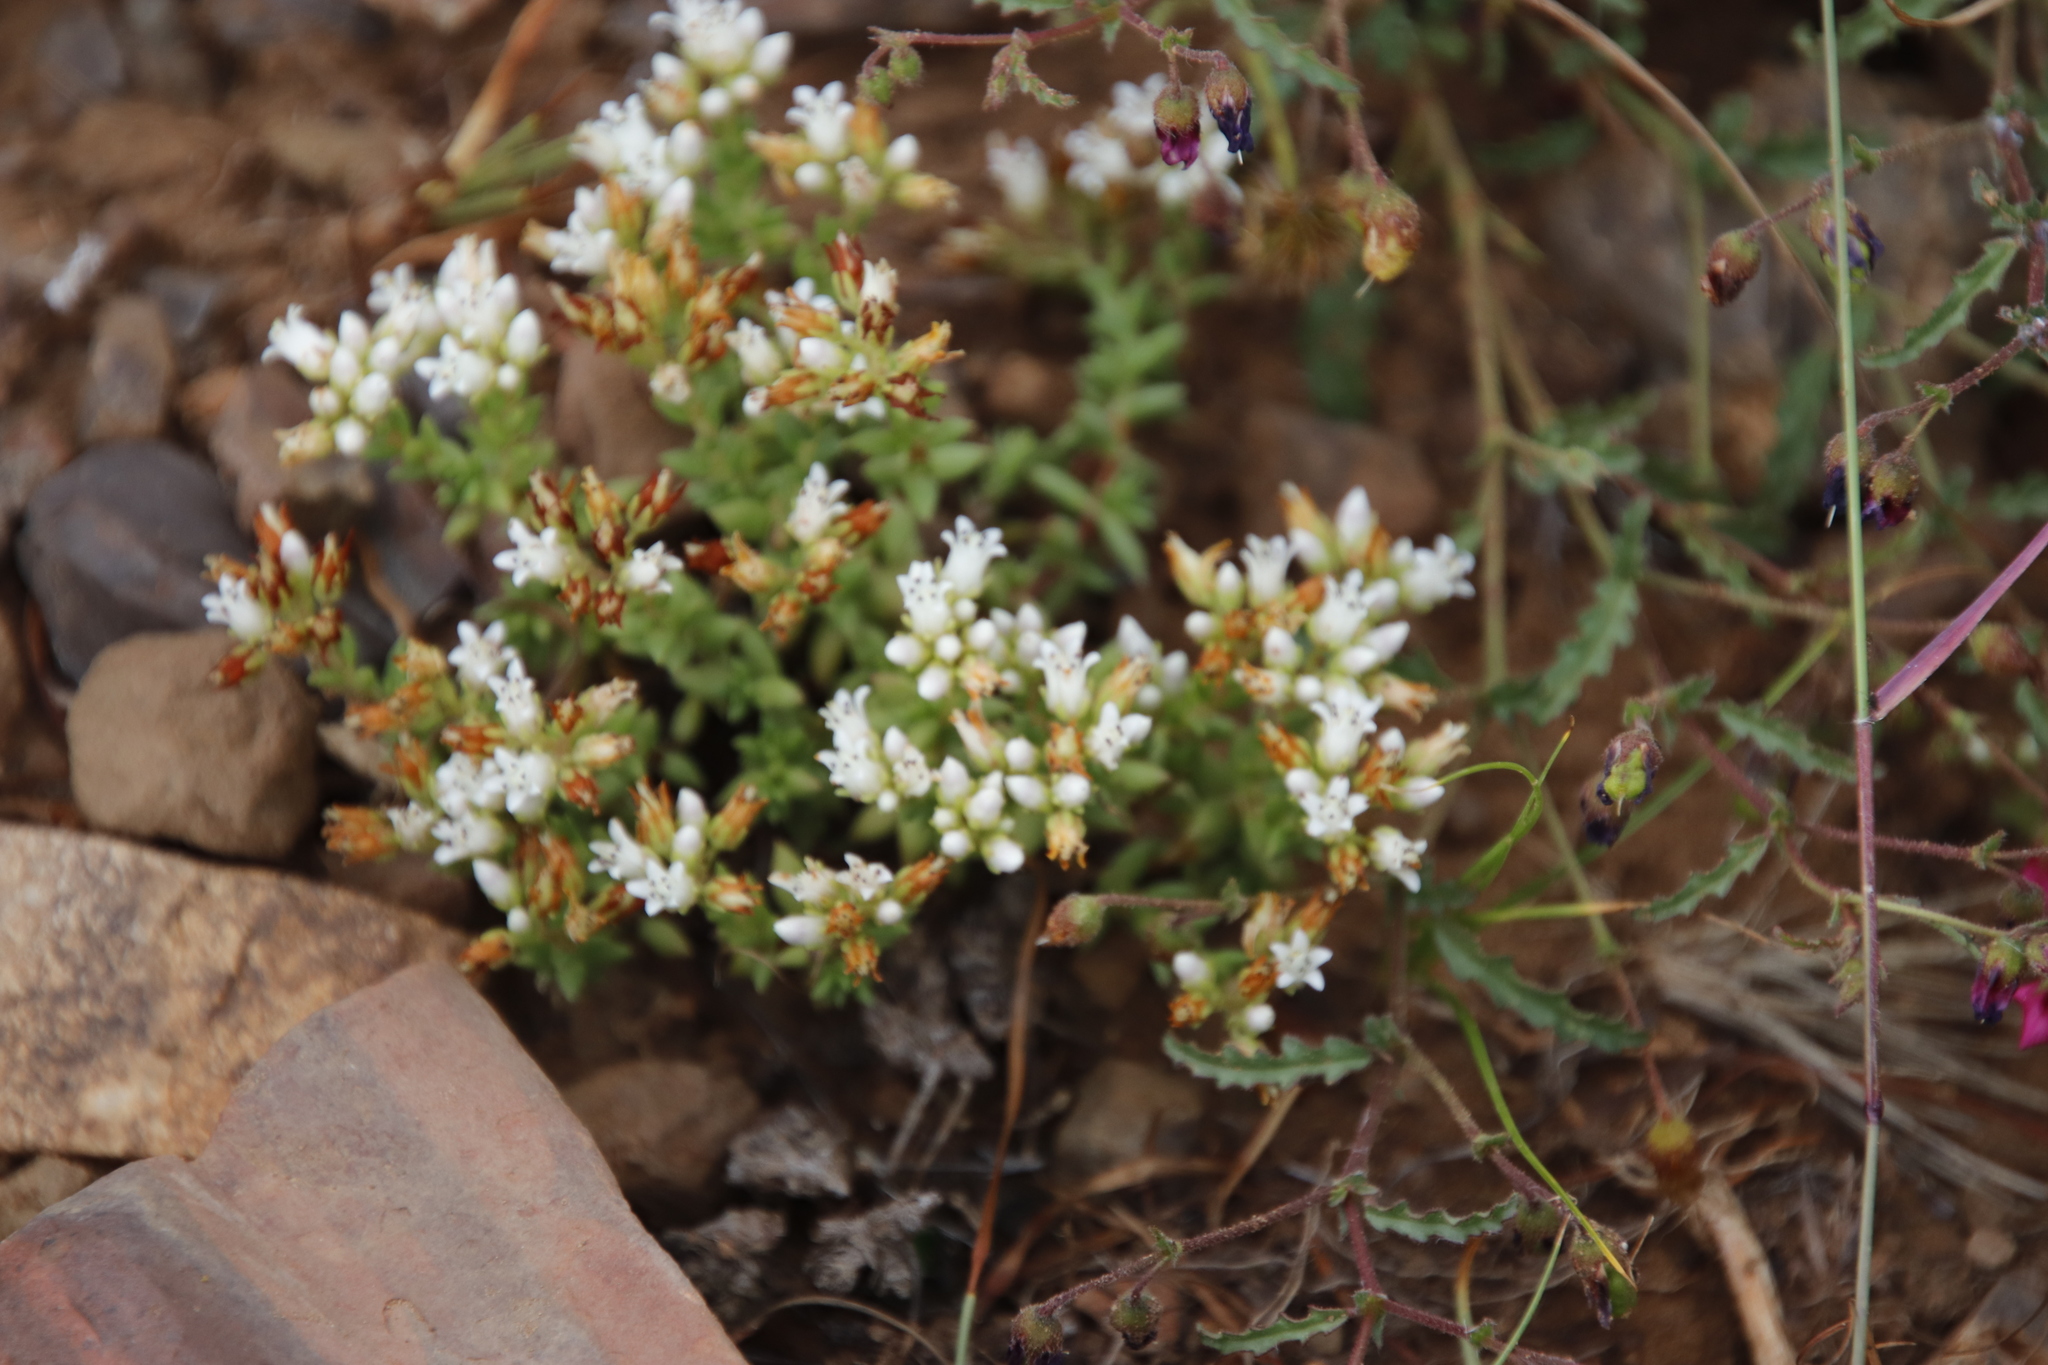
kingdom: Plantae
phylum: Tracheophyta
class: Magnoliopsida
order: Saxifragales
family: Crassulaceae
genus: Crassula
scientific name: Crassula dependens
